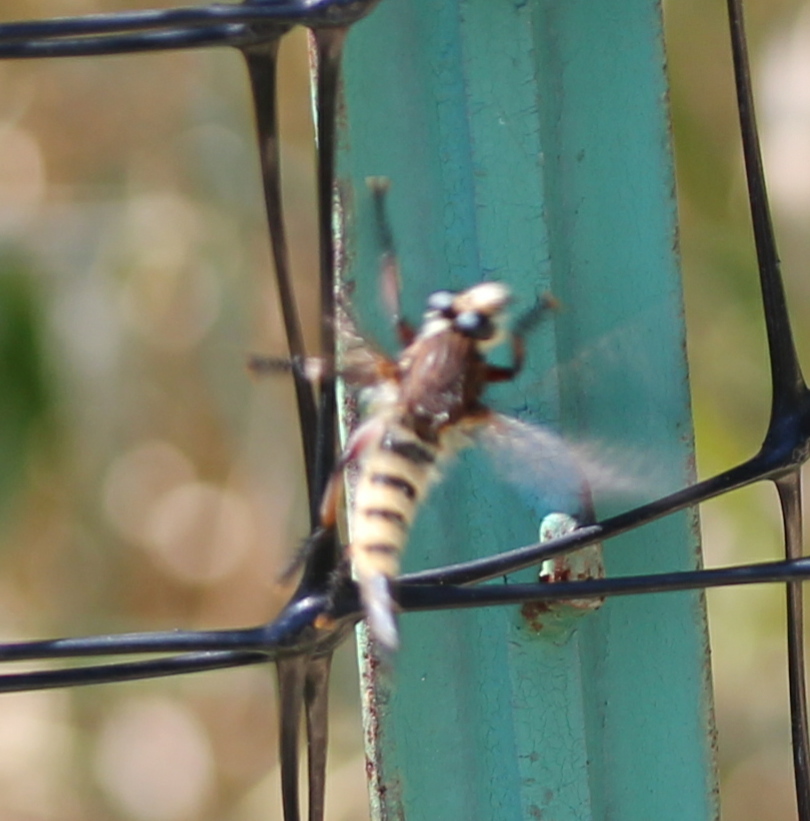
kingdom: Animalia
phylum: Arthropoda
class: Insecta
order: Diptera
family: Asilidae
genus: Promachus
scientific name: Promachus hinei
